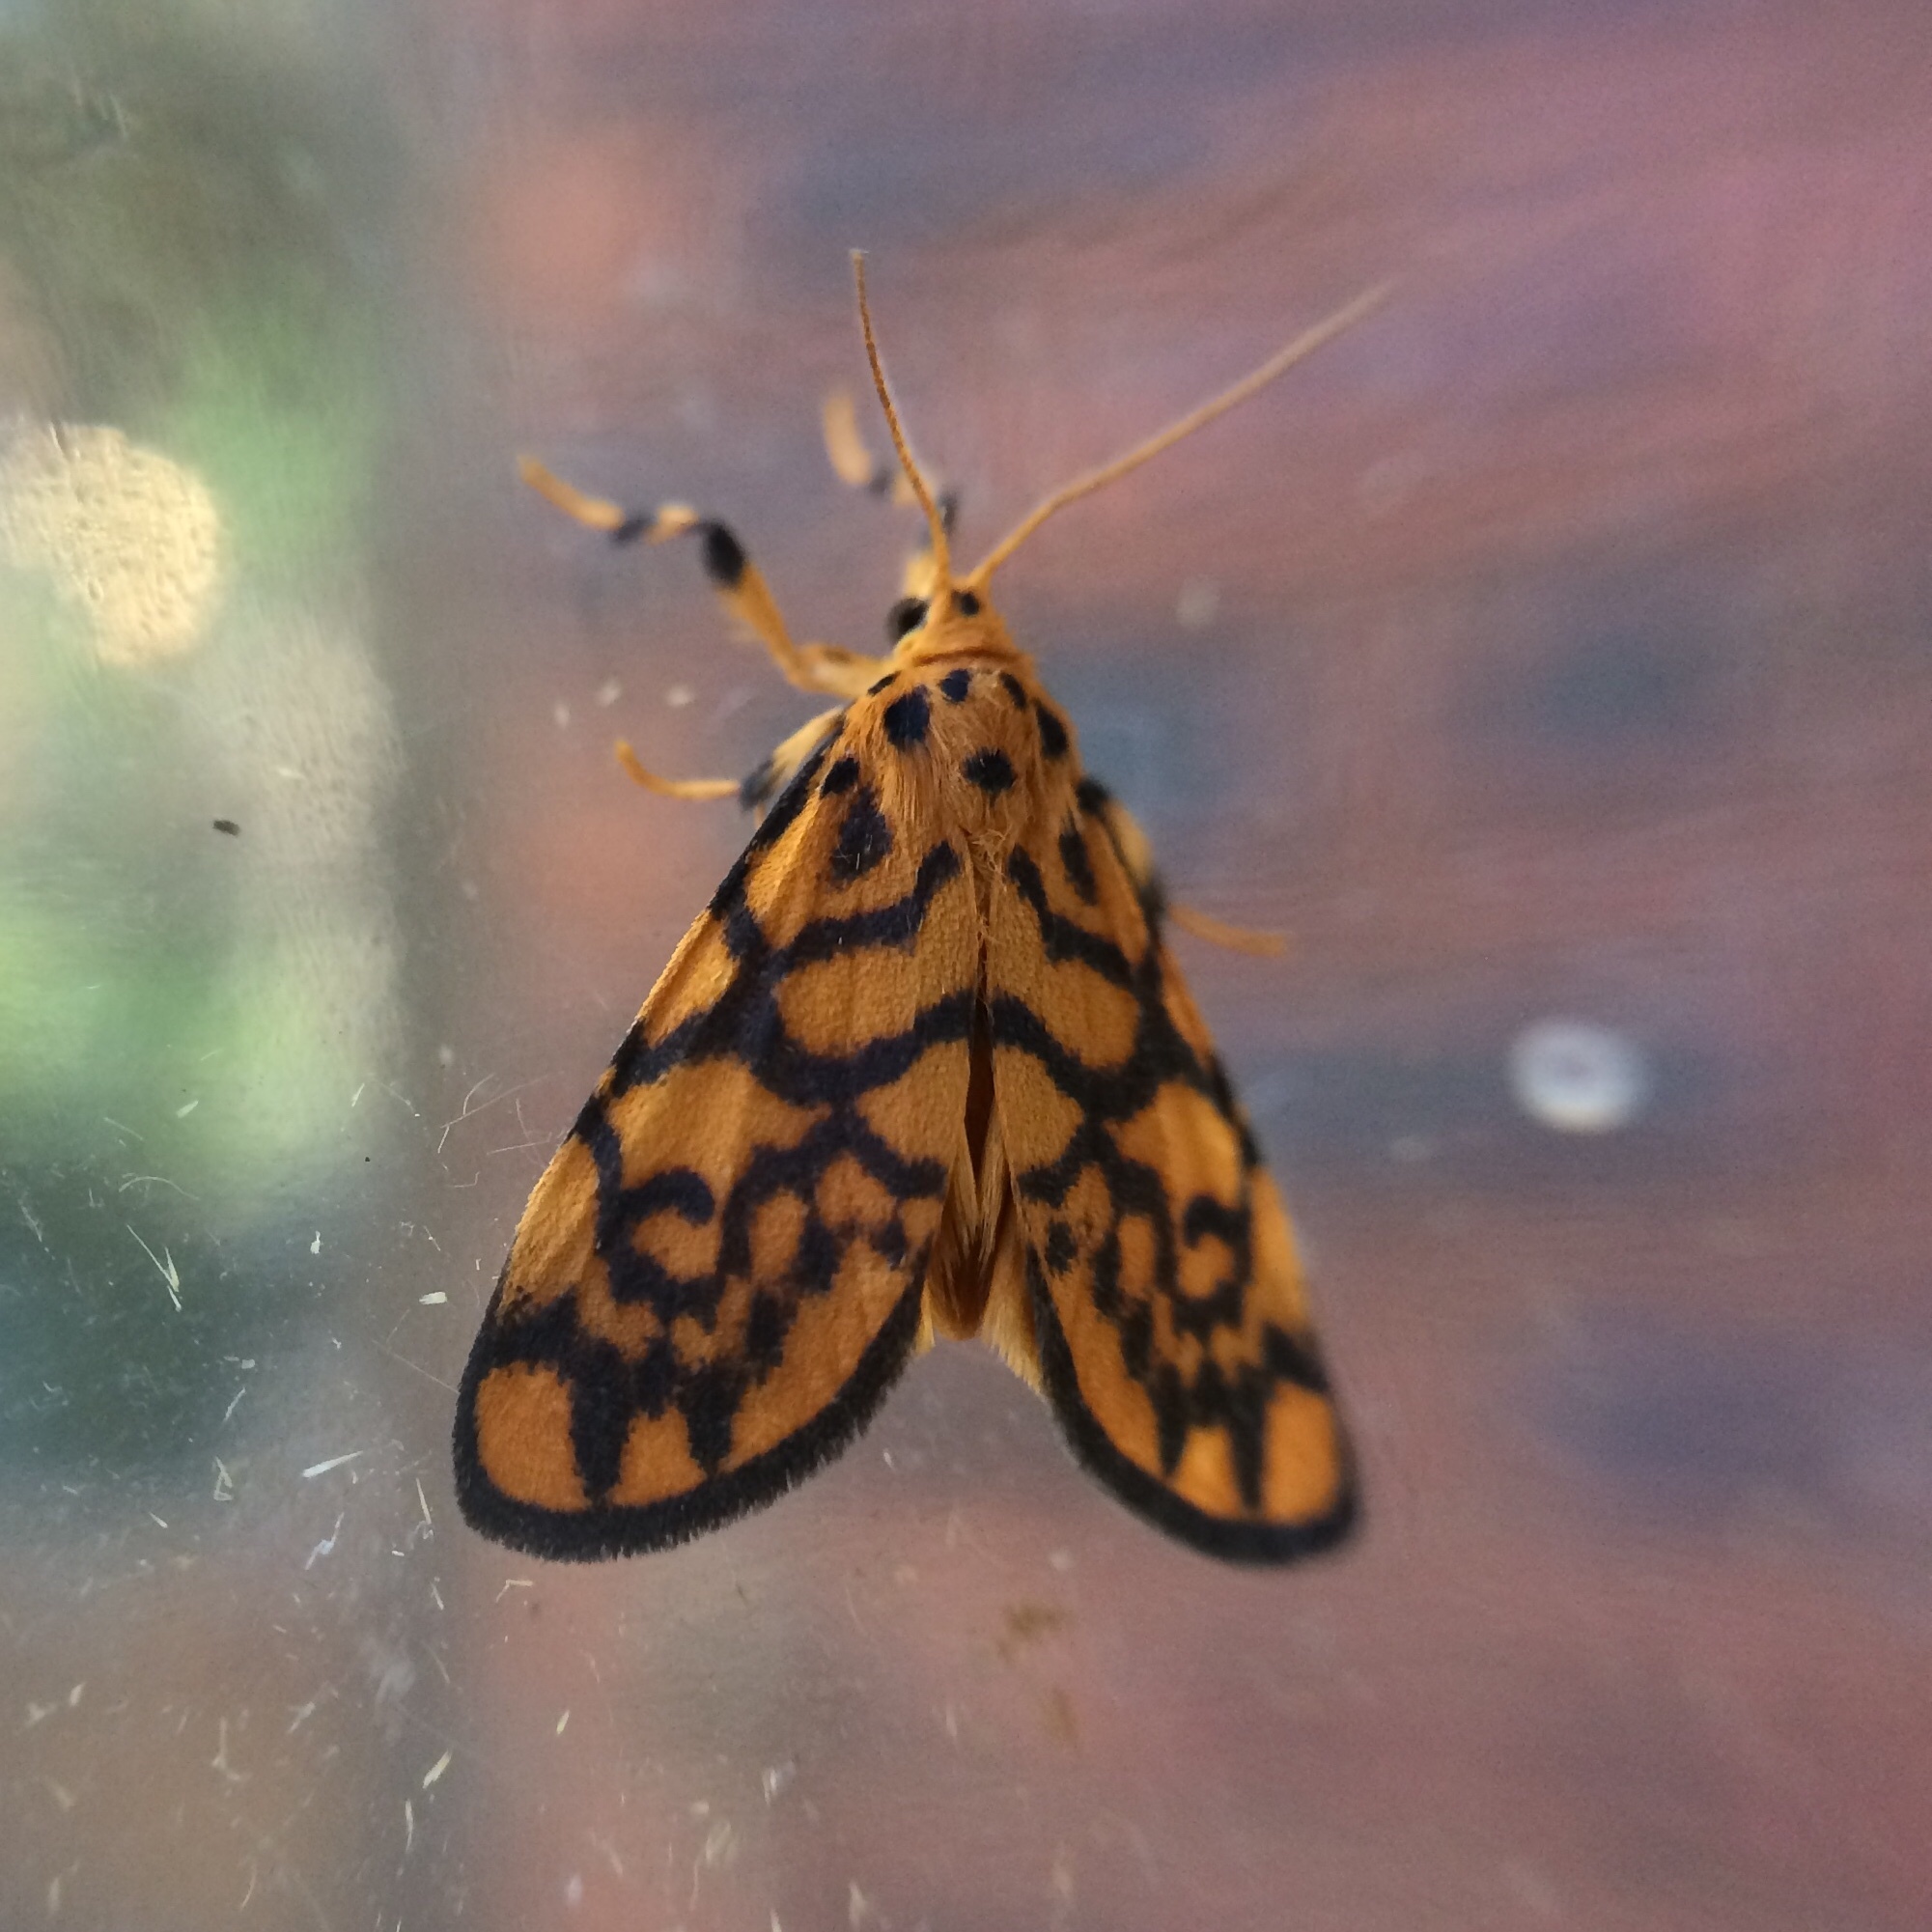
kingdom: Animalia
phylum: Arthropoda
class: Insecta
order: Lepidoptera
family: Erebidae
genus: Tumicla
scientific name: Tumicla sagenaria
